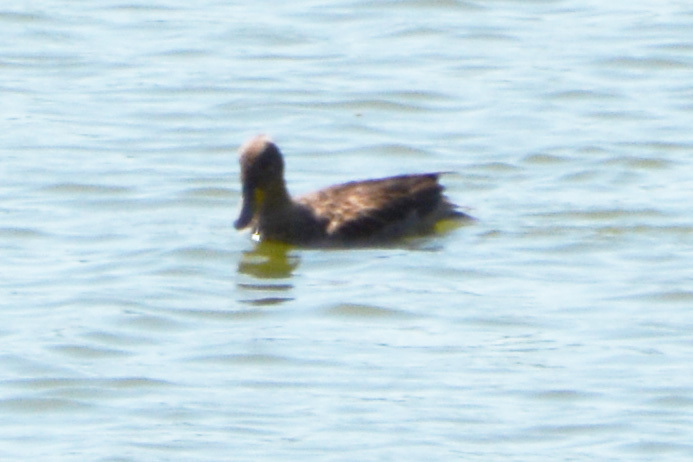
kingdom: Animalia
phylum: Chordata
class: Aves
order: Anseriformes
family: Anatidae
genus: Anas
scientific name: Anas georgica
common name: Yellow-billed pintail
